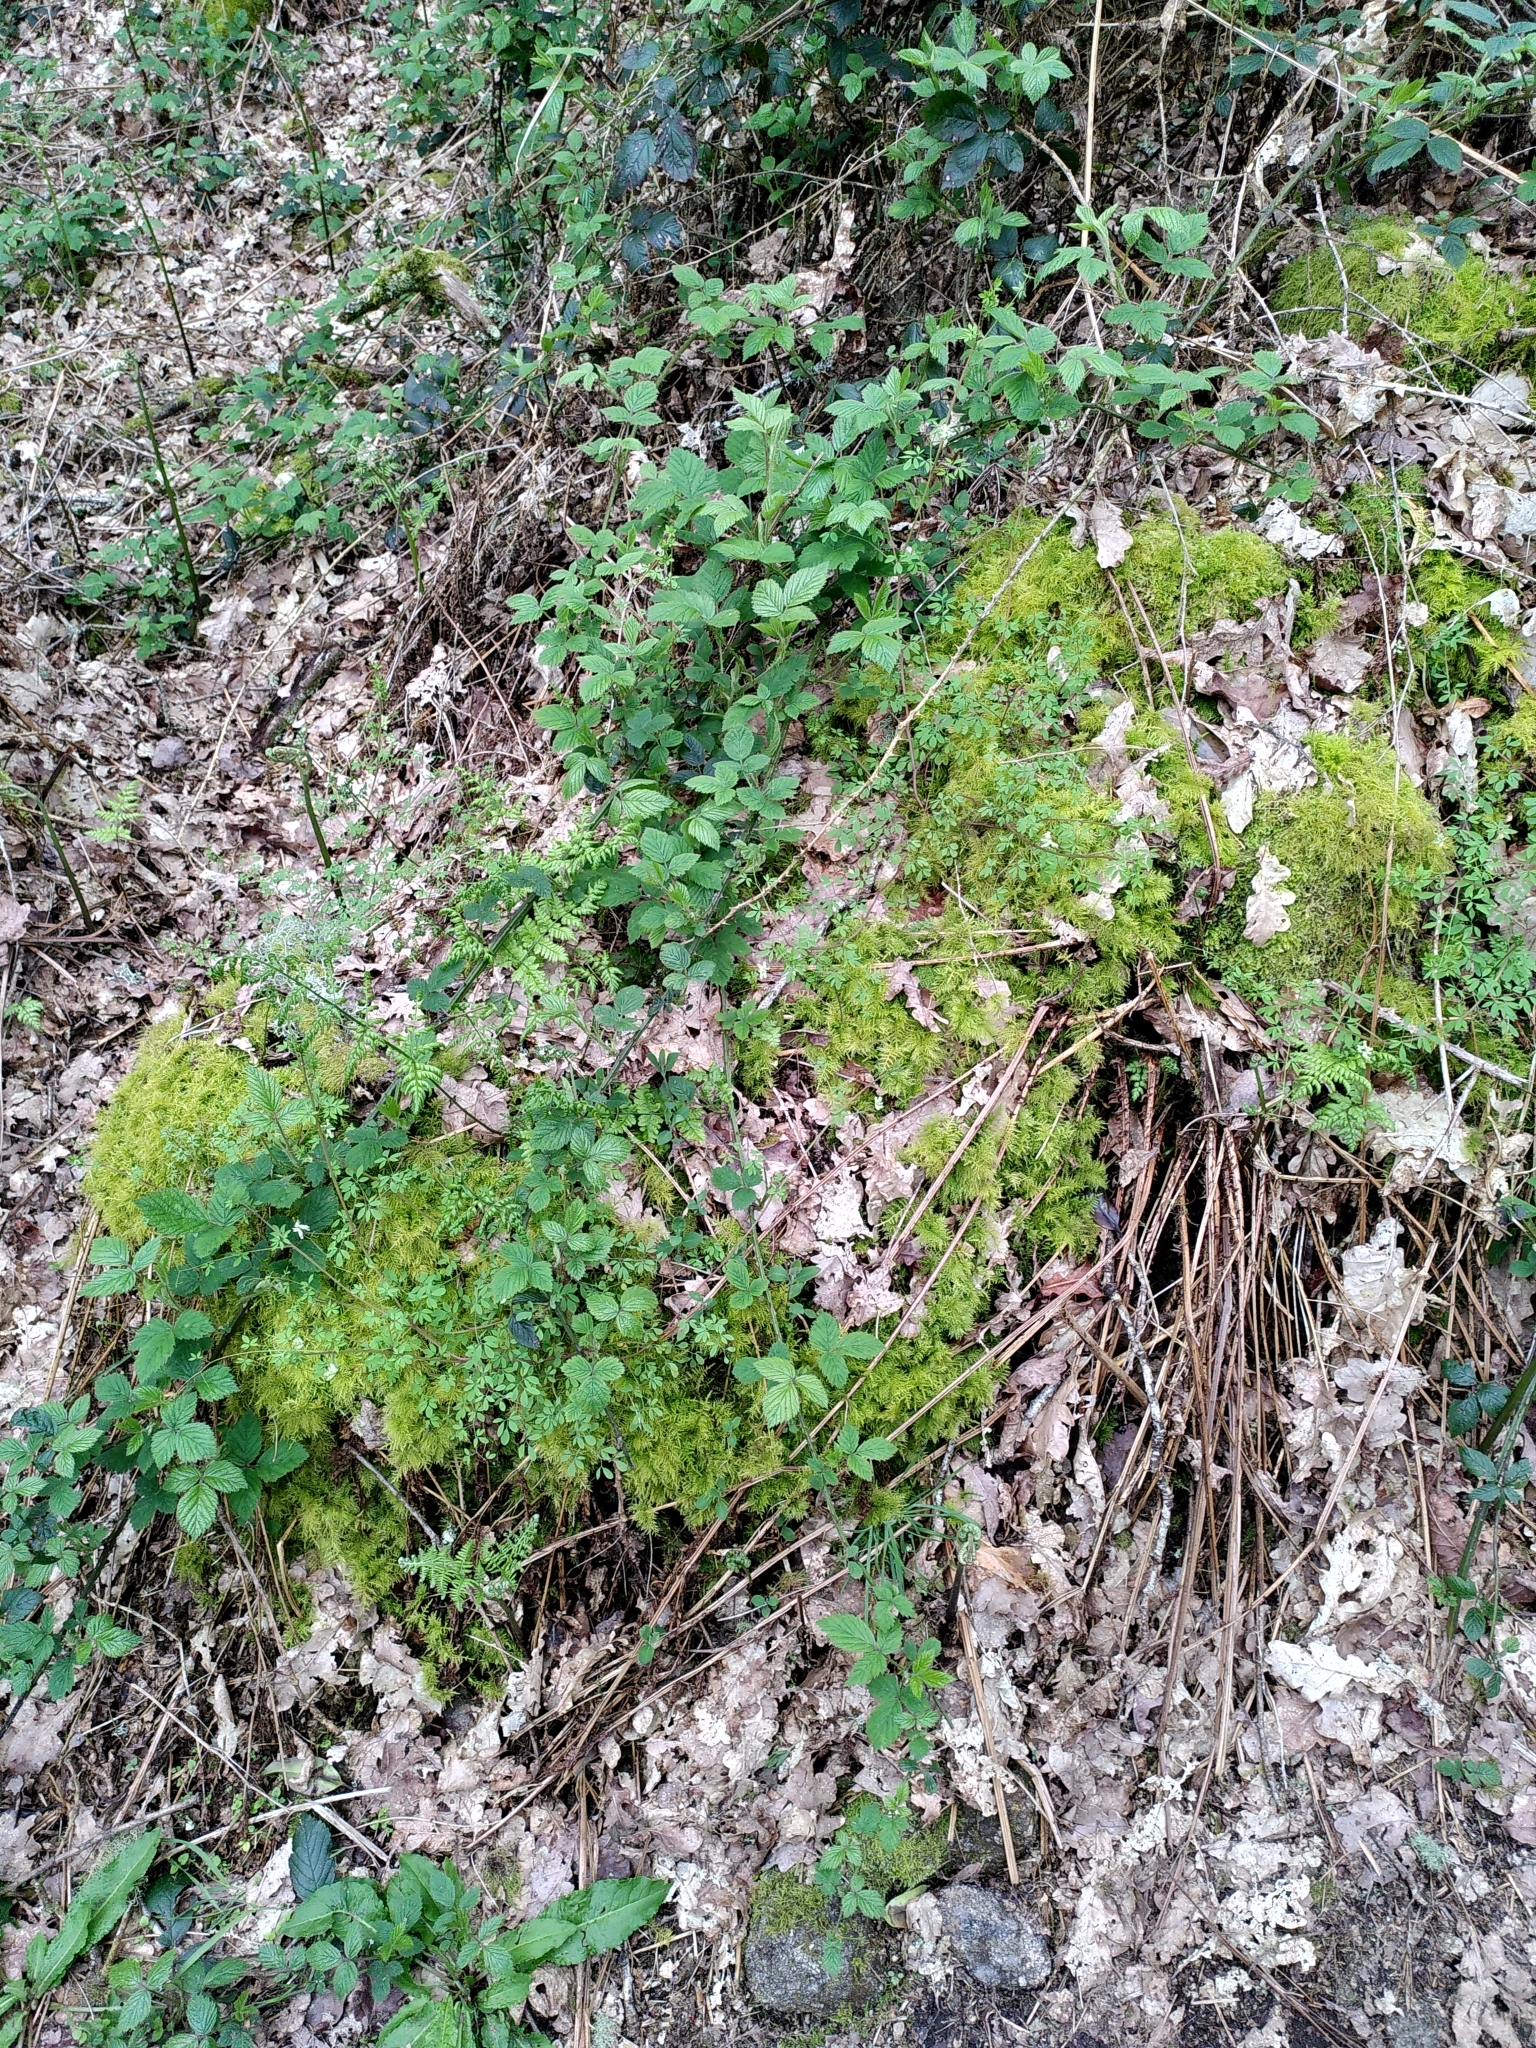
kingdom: Plantae
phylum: Tracheophyta
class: Magnoliopsida
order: Ranunculales
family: Papaveraceae
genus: Ceratocapnos
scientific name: Ceratocapnos claviculata
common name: Climbing corydalis
